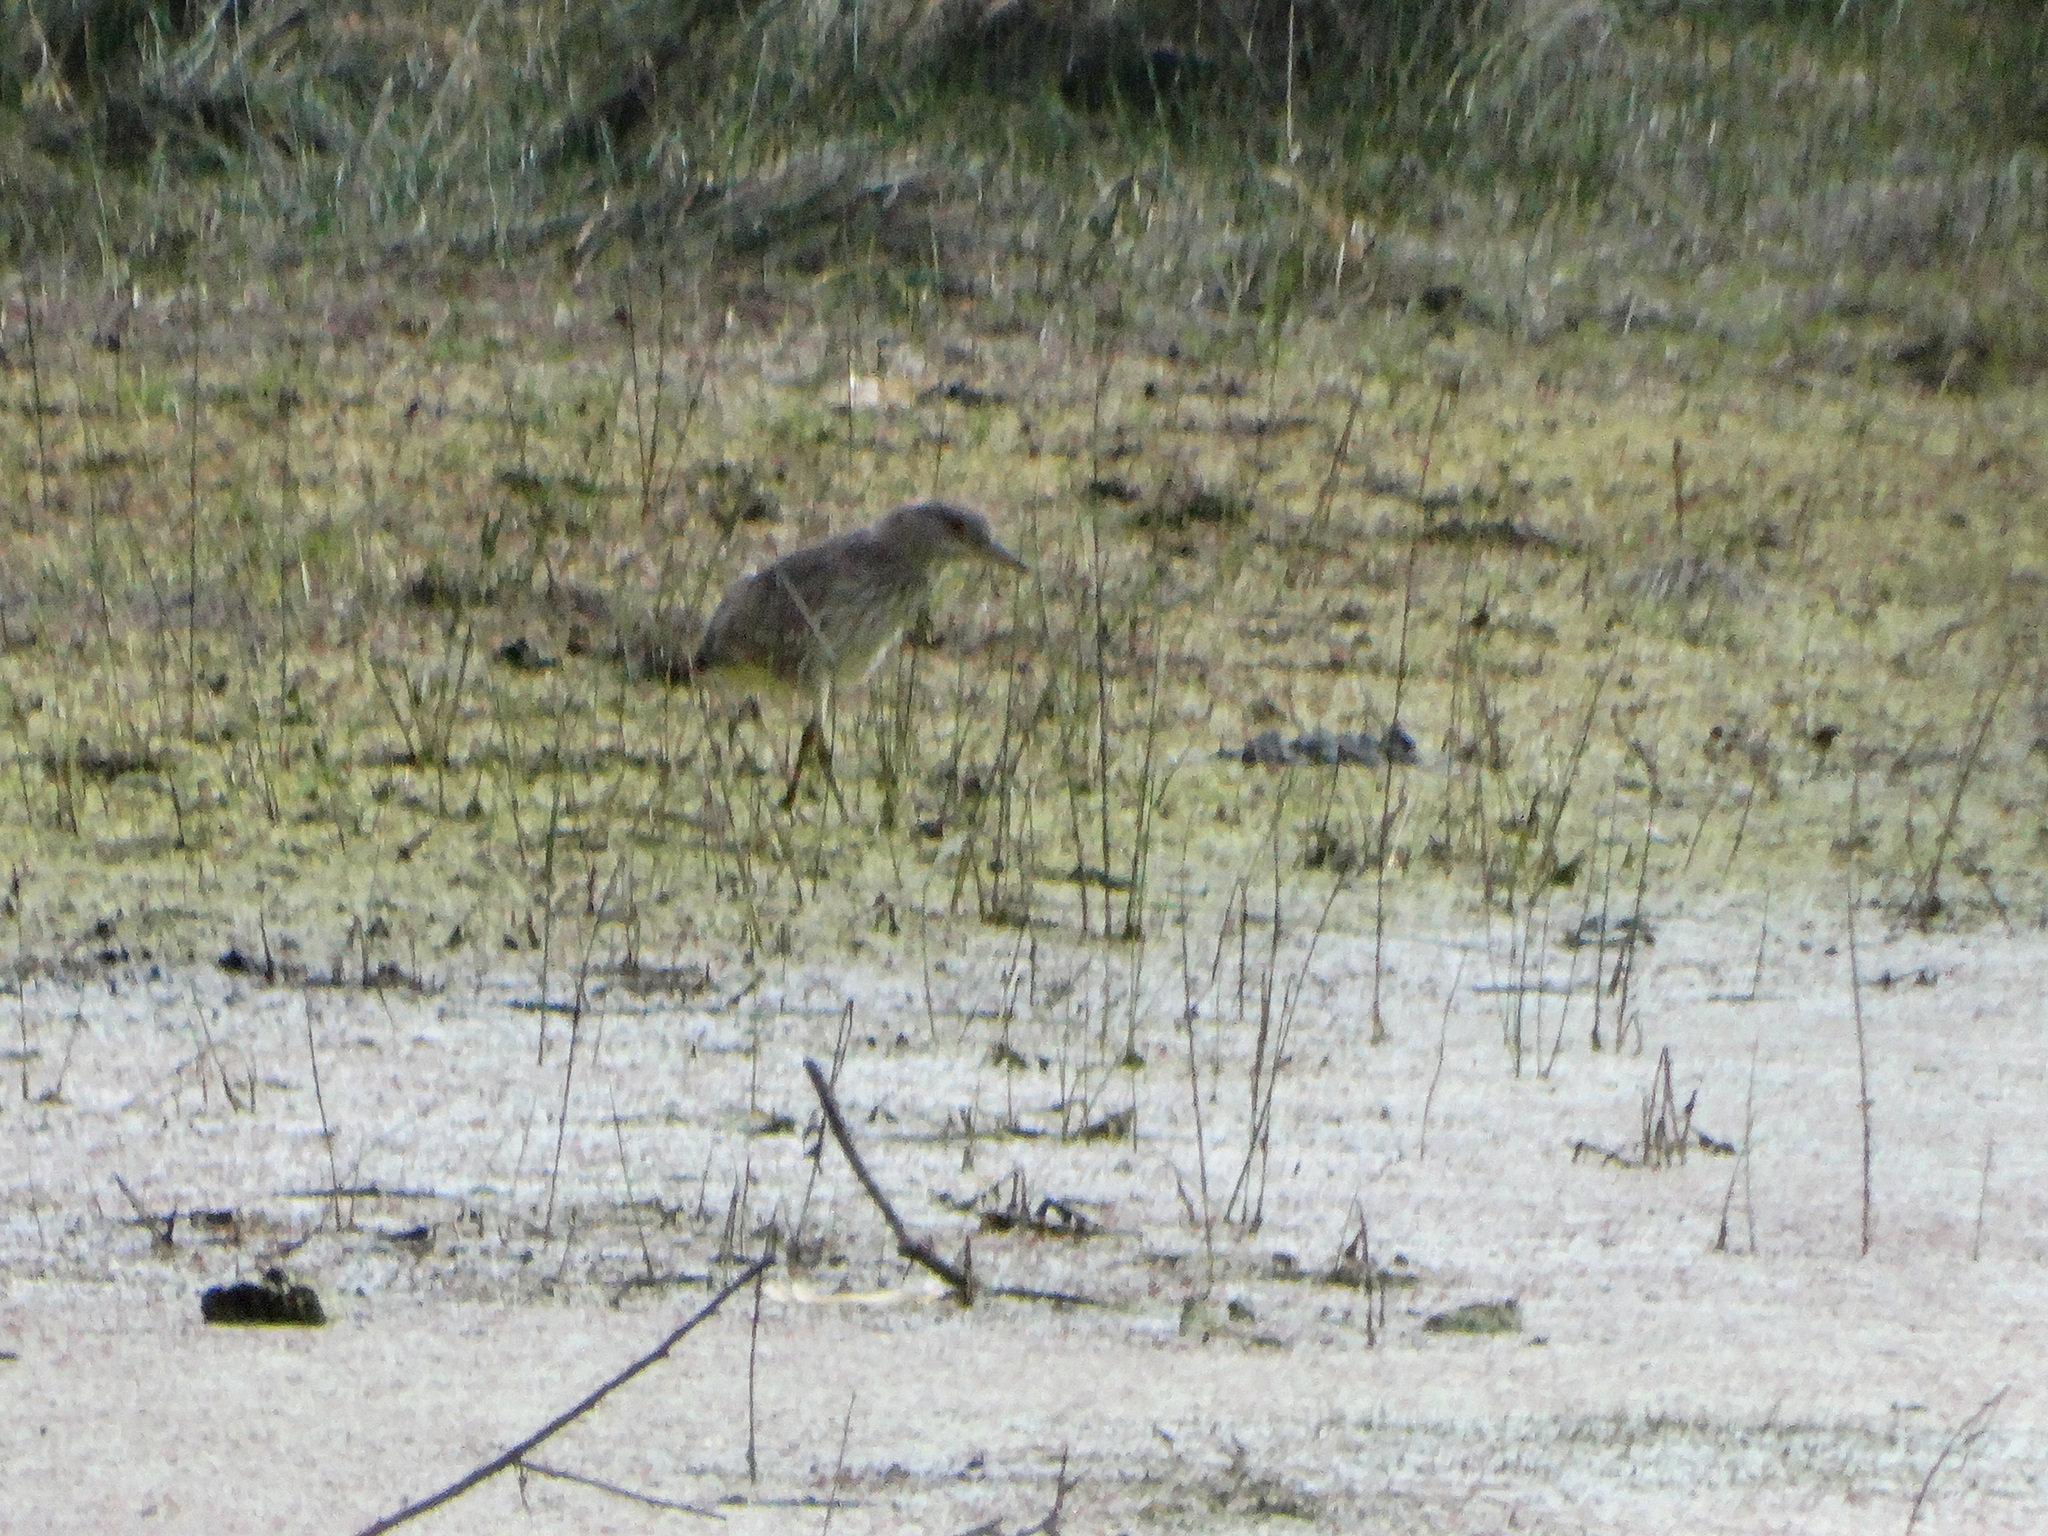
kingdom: Animalia
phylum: Chordata
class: Aves
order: Pelecaniformes
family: Ardeidae
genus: Nycticorax
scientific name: Nycticorax nycticorax
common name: Black-crowned night heron
